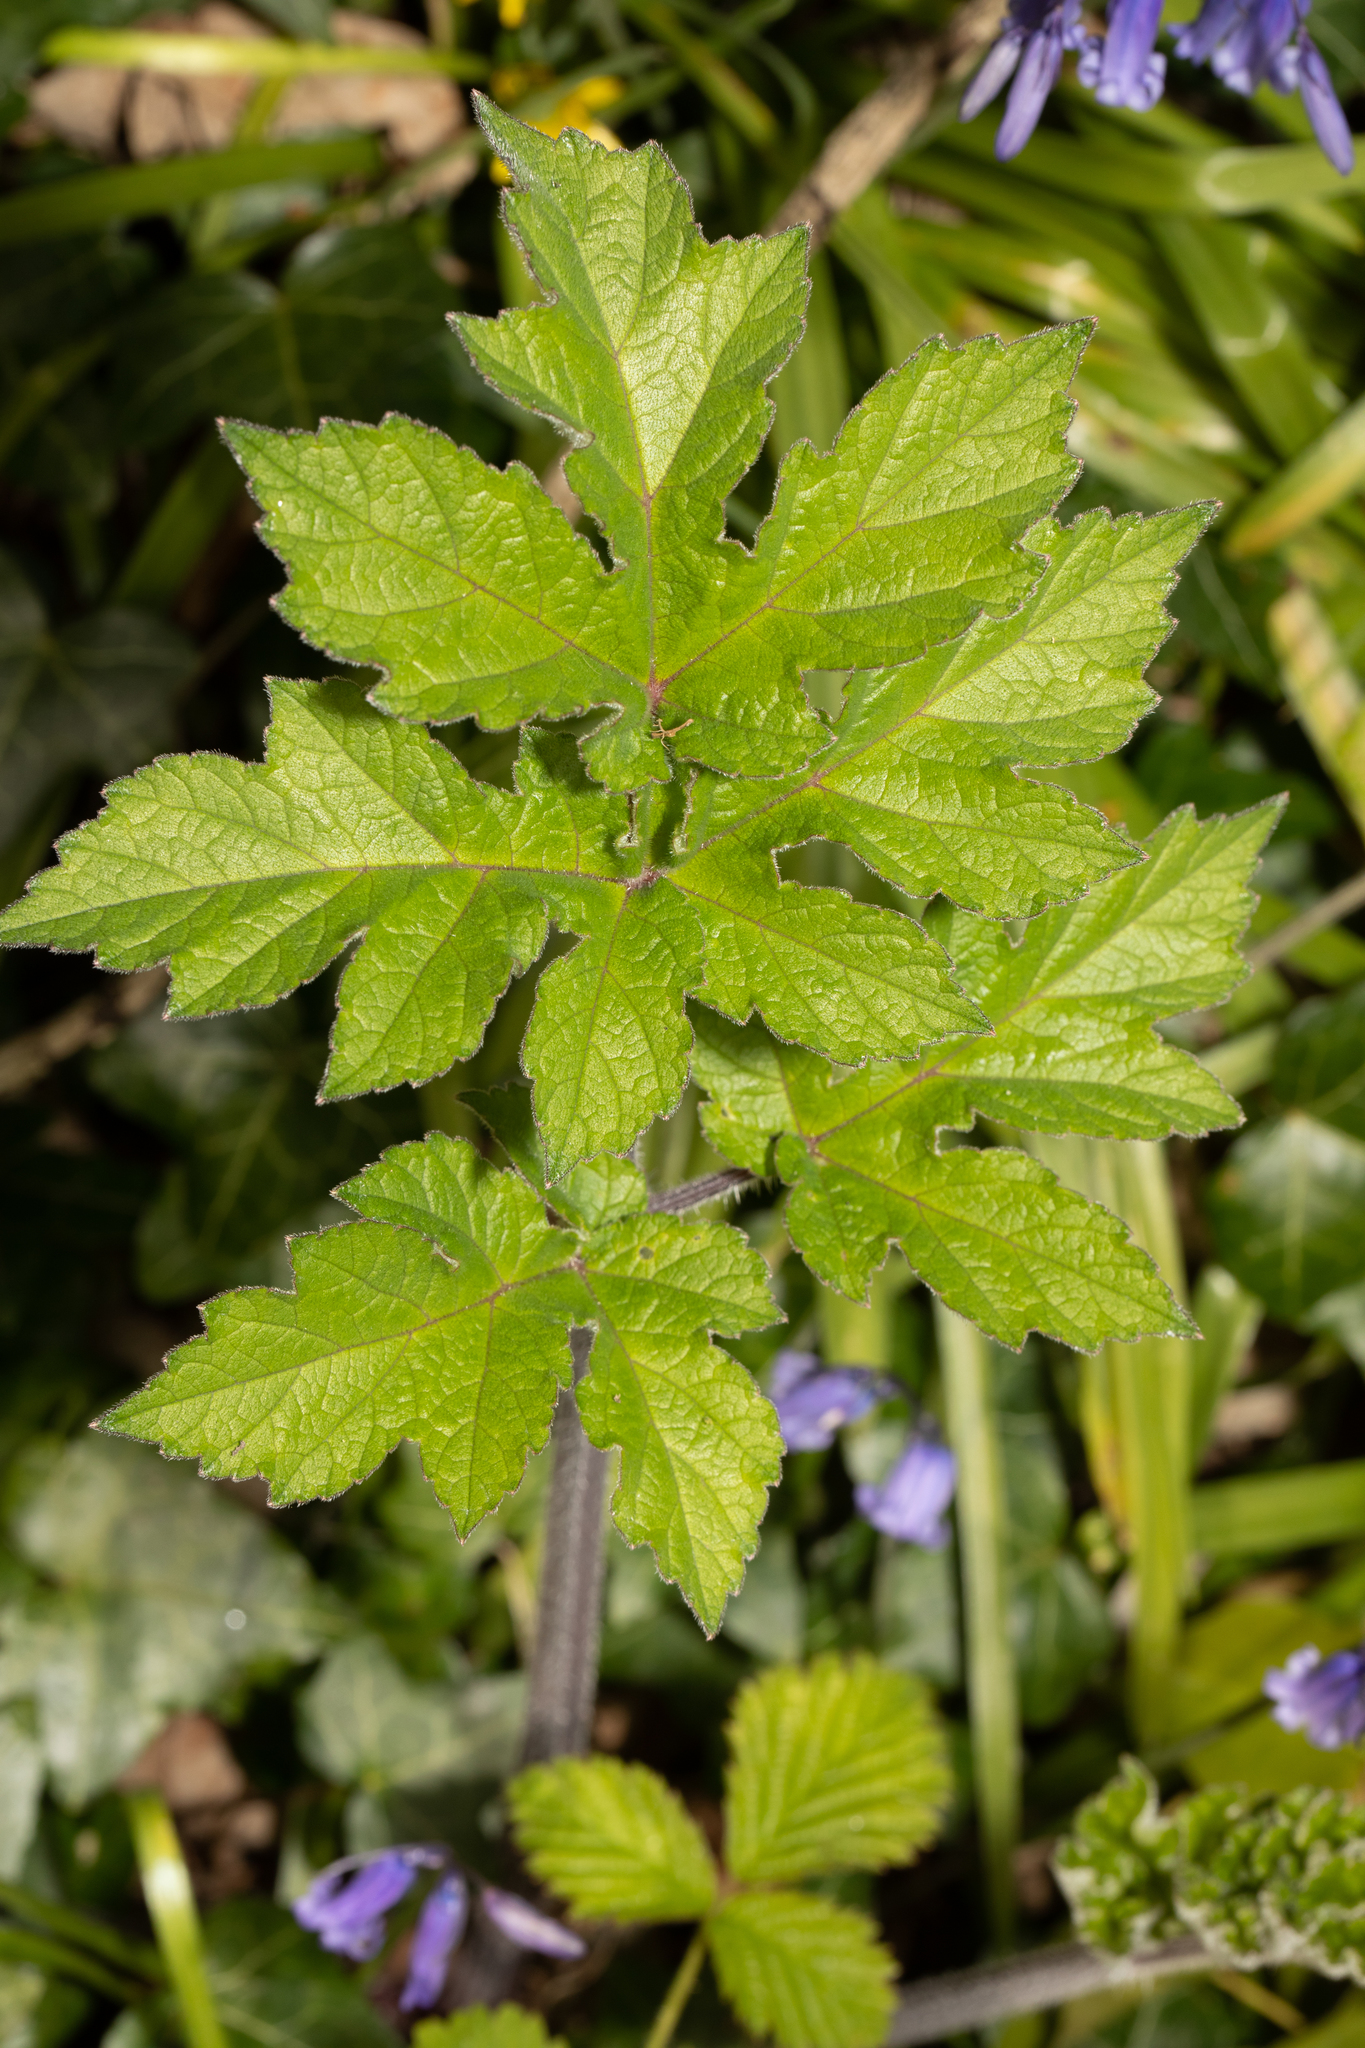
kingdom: Plantae
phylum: Tracheophyta
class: Magnoliopsida
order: Apiales
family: Apiaceae
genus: Heracleum
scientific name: Heracleum sphondylium
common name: Hogweed
